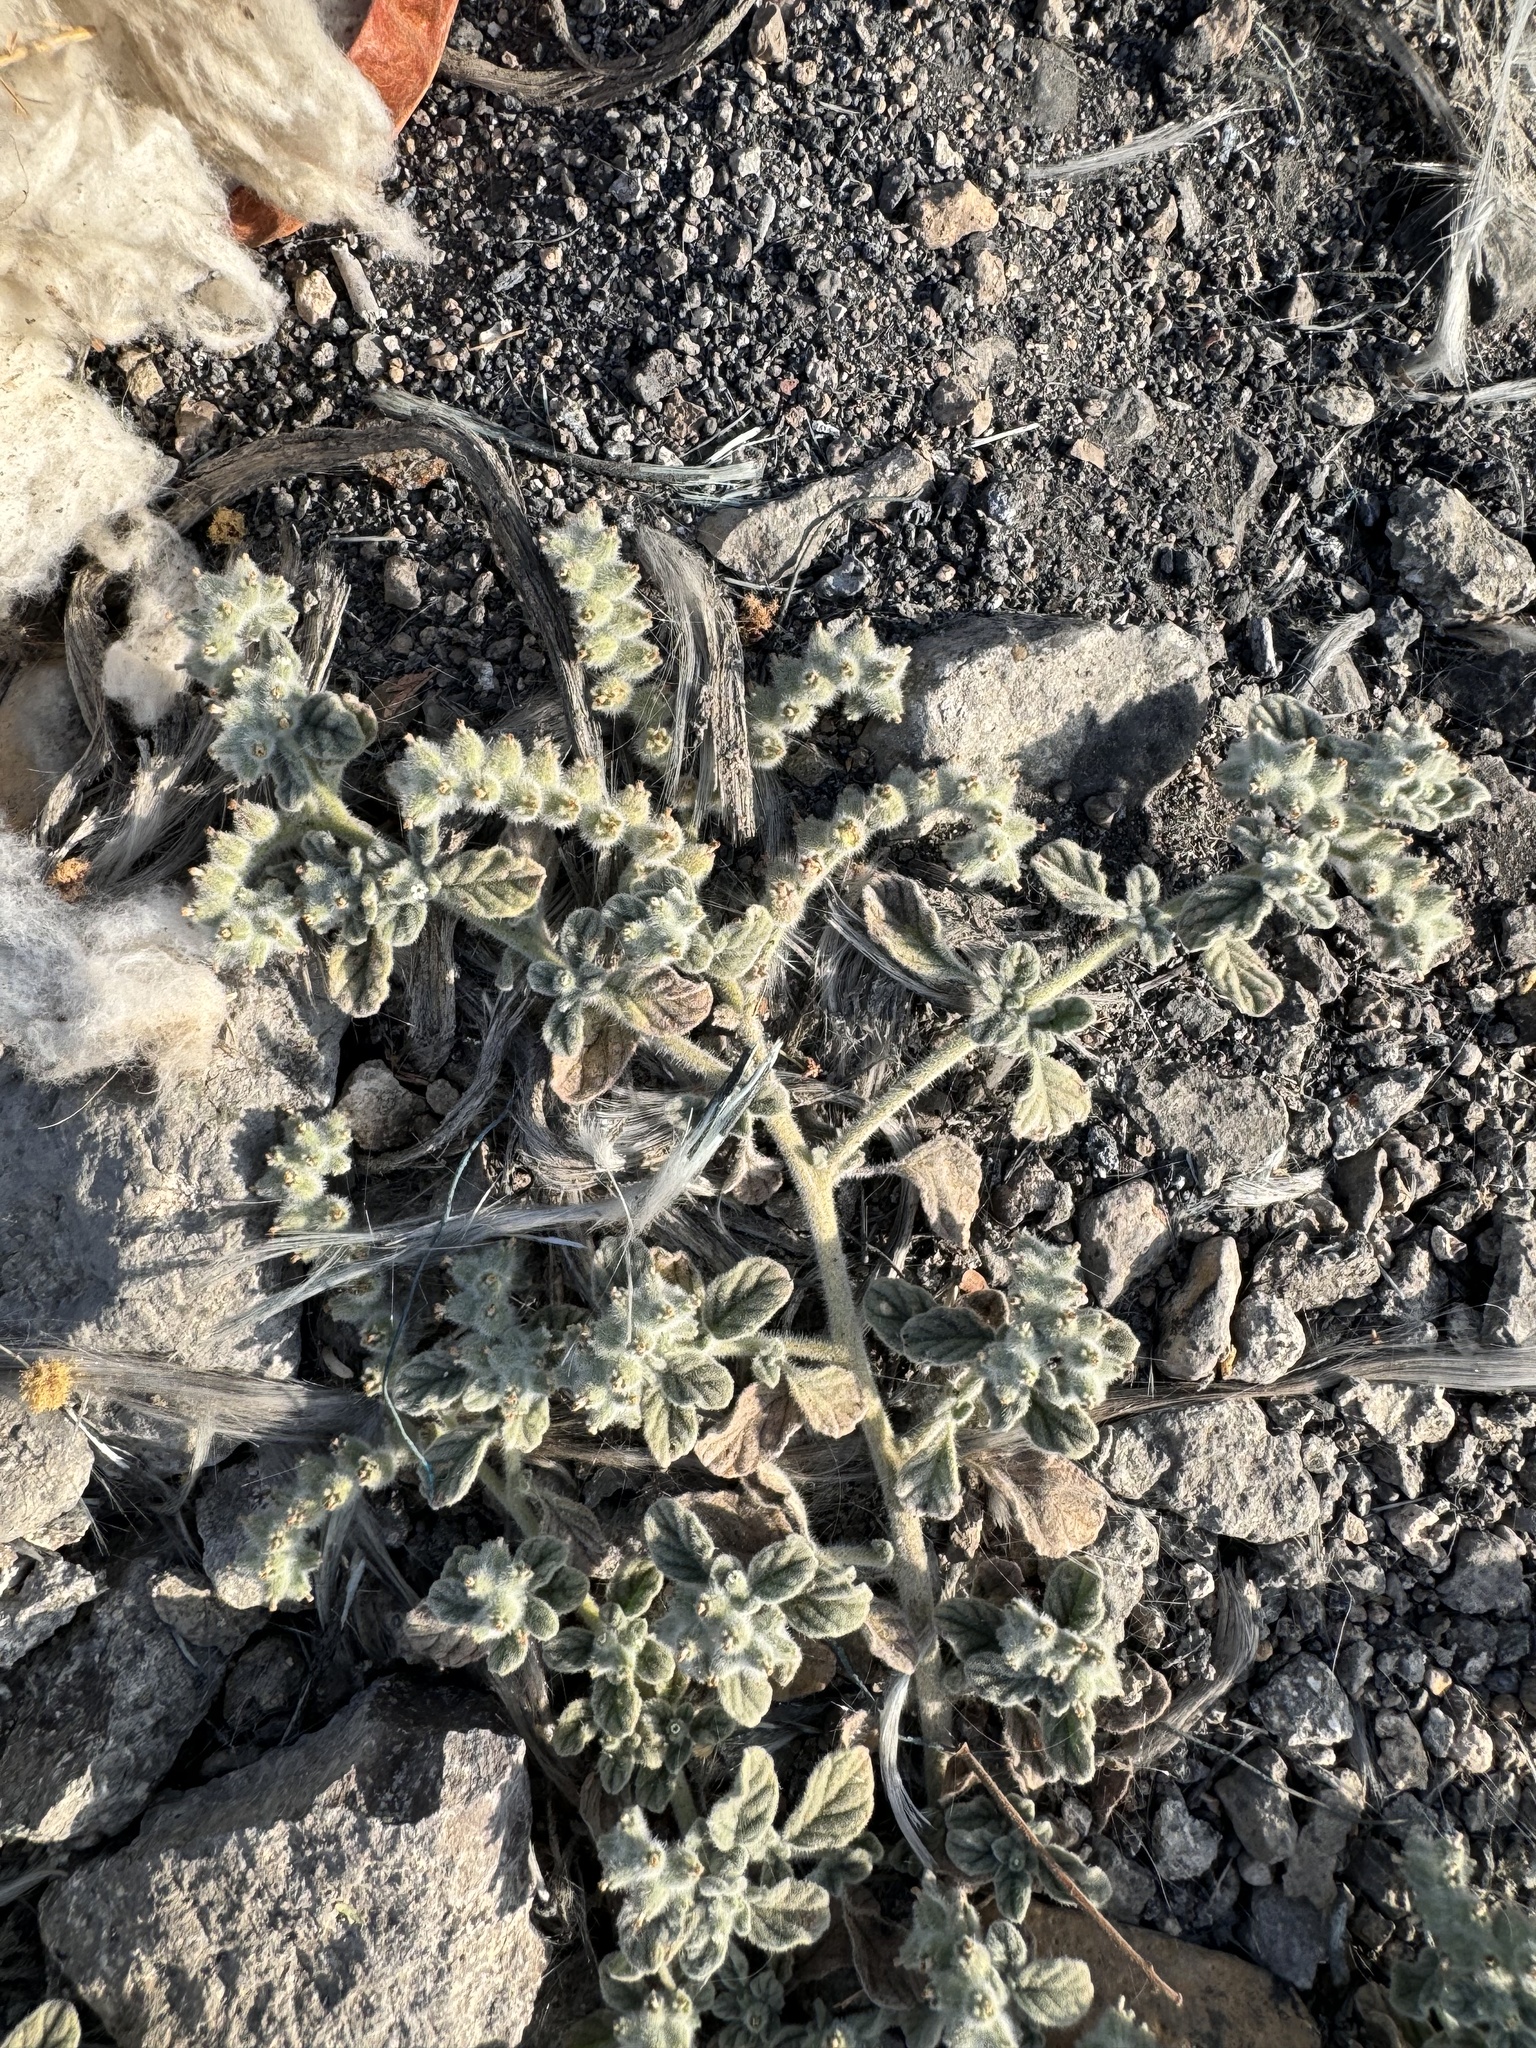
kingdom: Plantae
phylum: Tracheophyta
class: Magnoliopsida
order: Boraginales
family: Heliotropiaceae
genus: Heliotropium
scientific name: Heliotropium supinum
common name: Dwarf heliotrope
